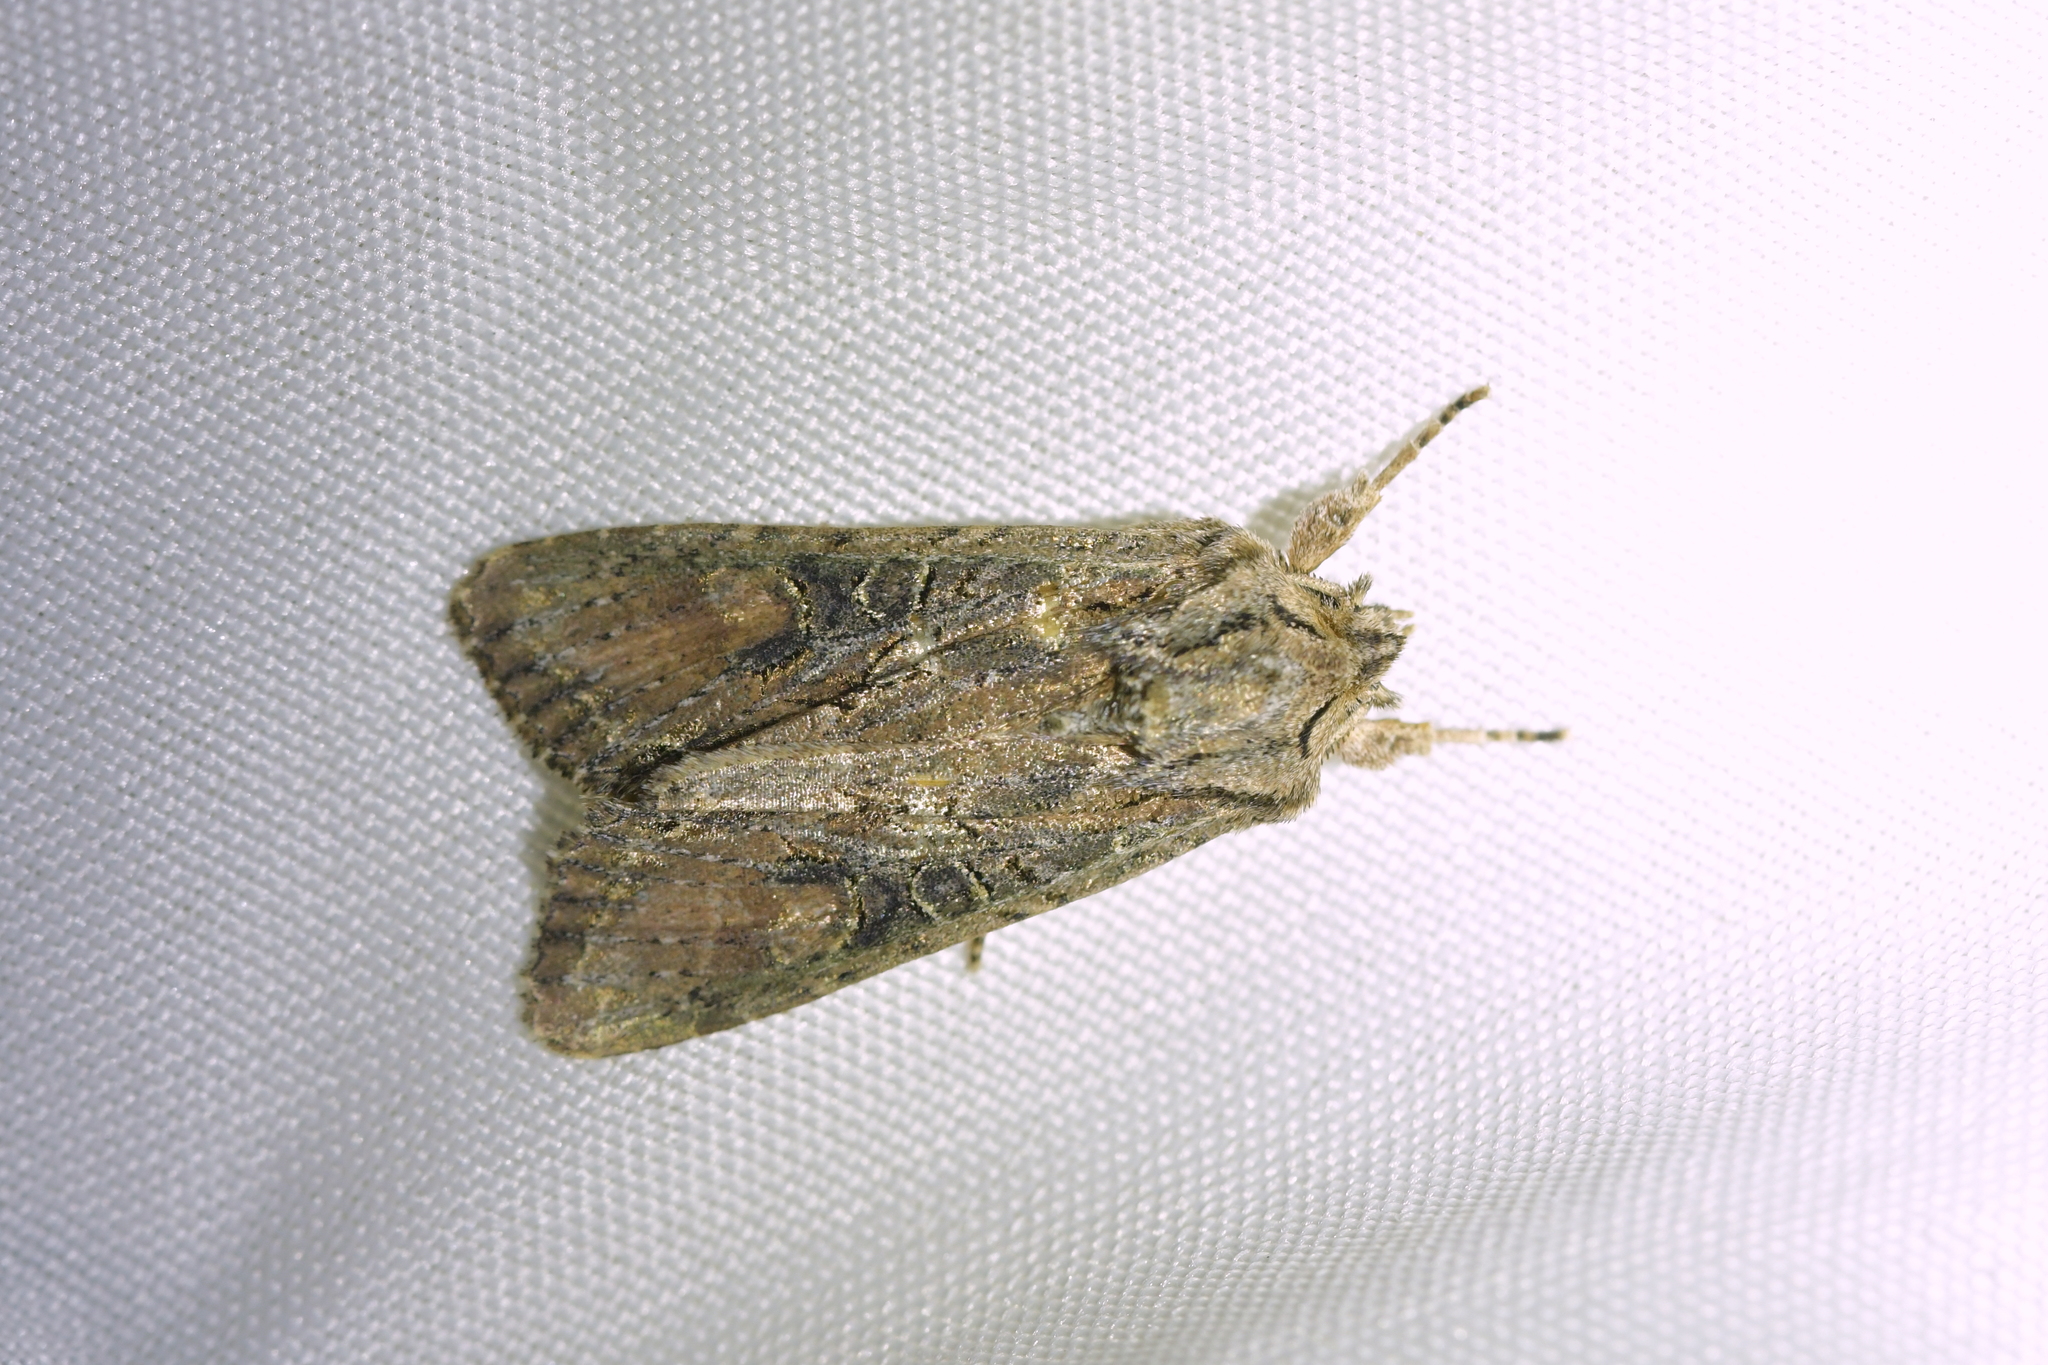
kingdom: Animalia
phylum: Arthropoda
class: Insecta
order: Lepidoptera
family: Noctuidae
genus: Ichneutica
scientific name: Ichneutica mutans
